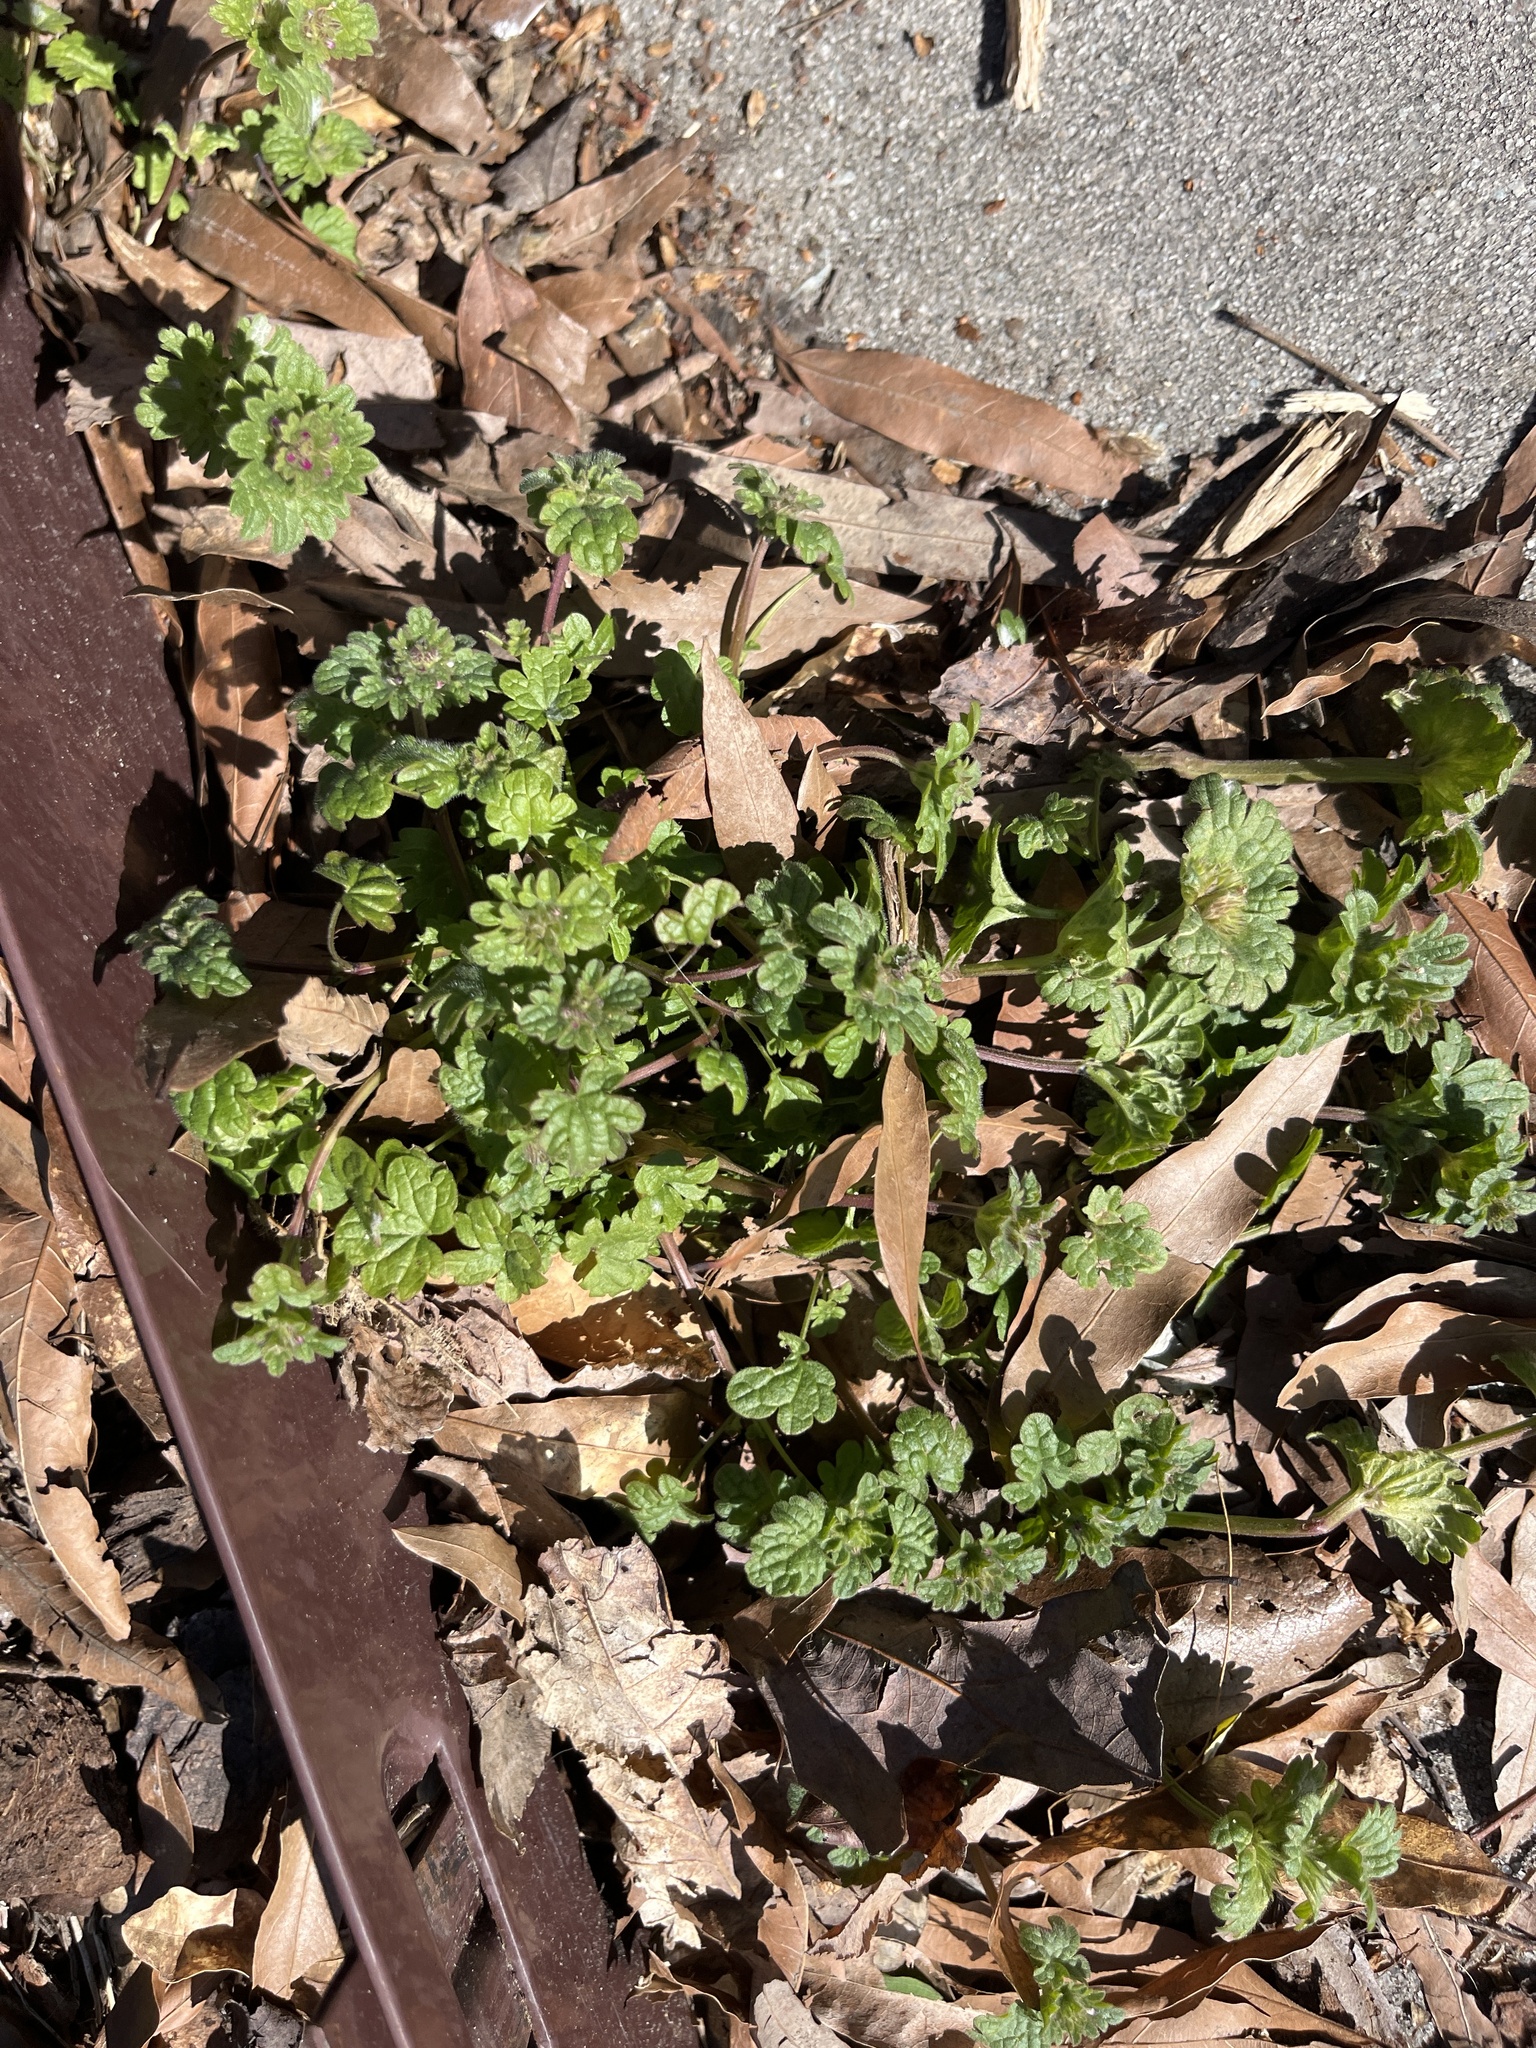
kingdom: Plantae
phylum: Tracheophyta
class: Magnoliopsida
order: Lamiales
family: Lamiaceae
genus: Lamium
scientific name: Lamium amplexicaule
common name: Henbit dead-nettle
